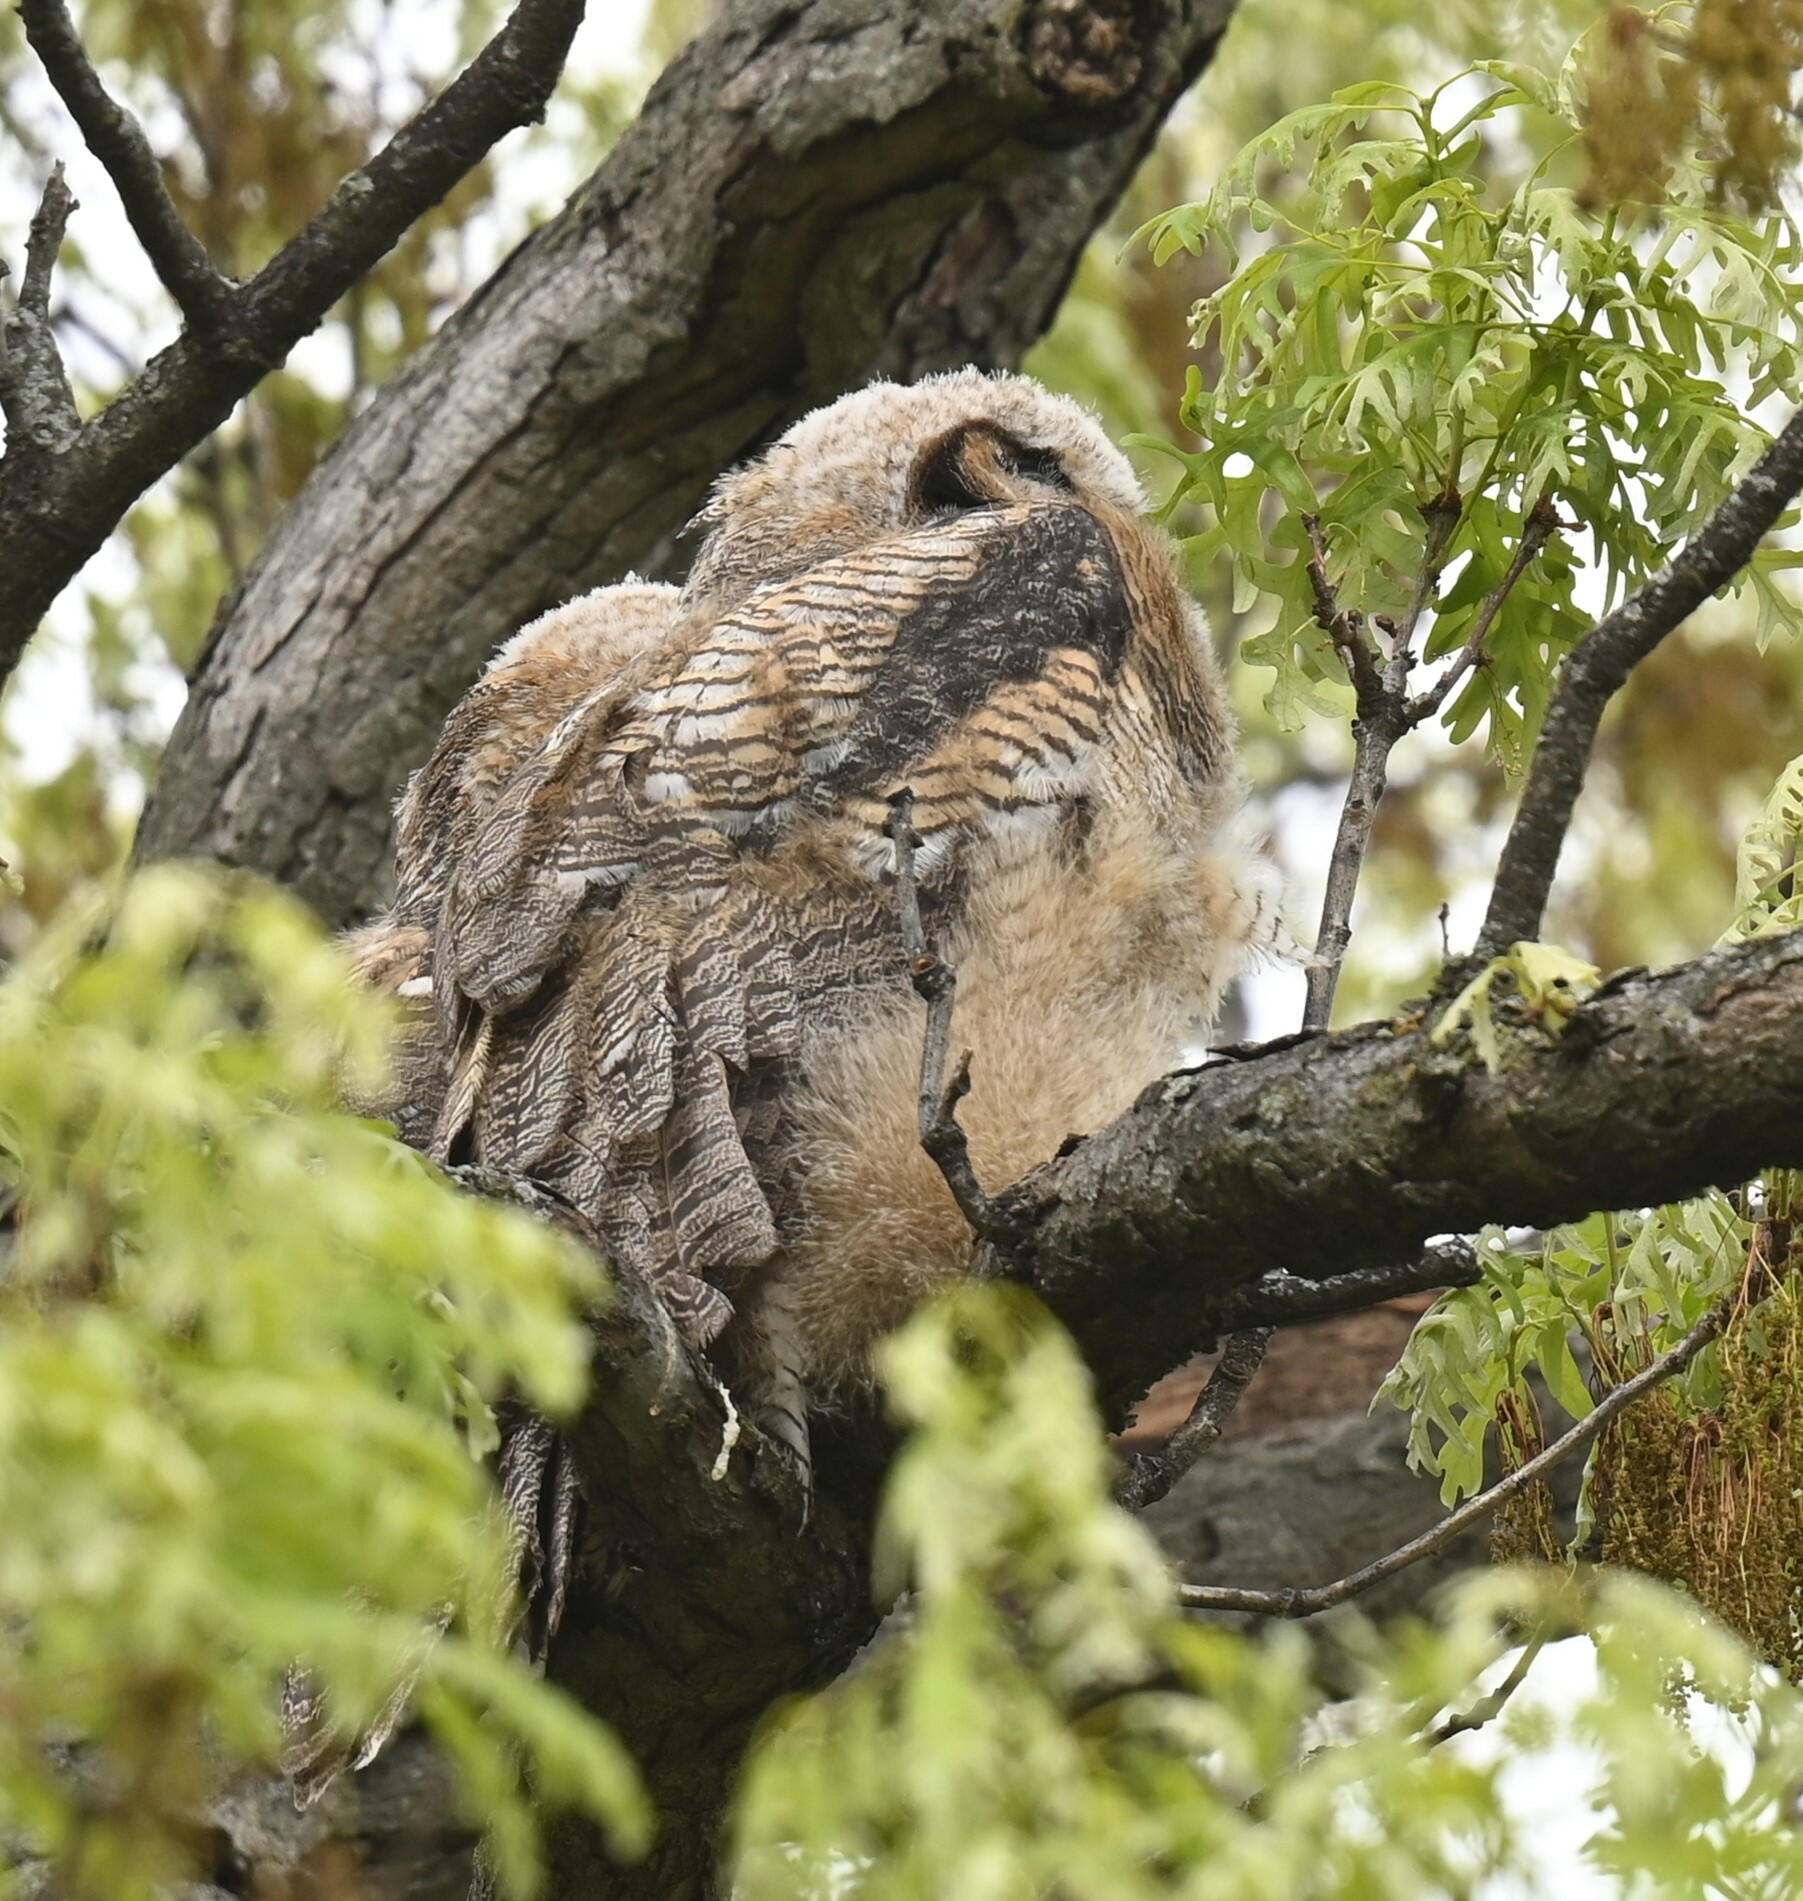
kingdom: Animalia
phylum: Chordata
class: Aves
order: Strigiformes
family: Strigidae
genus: Bubo
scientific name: Bubo virginianus
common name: Great horned owl
